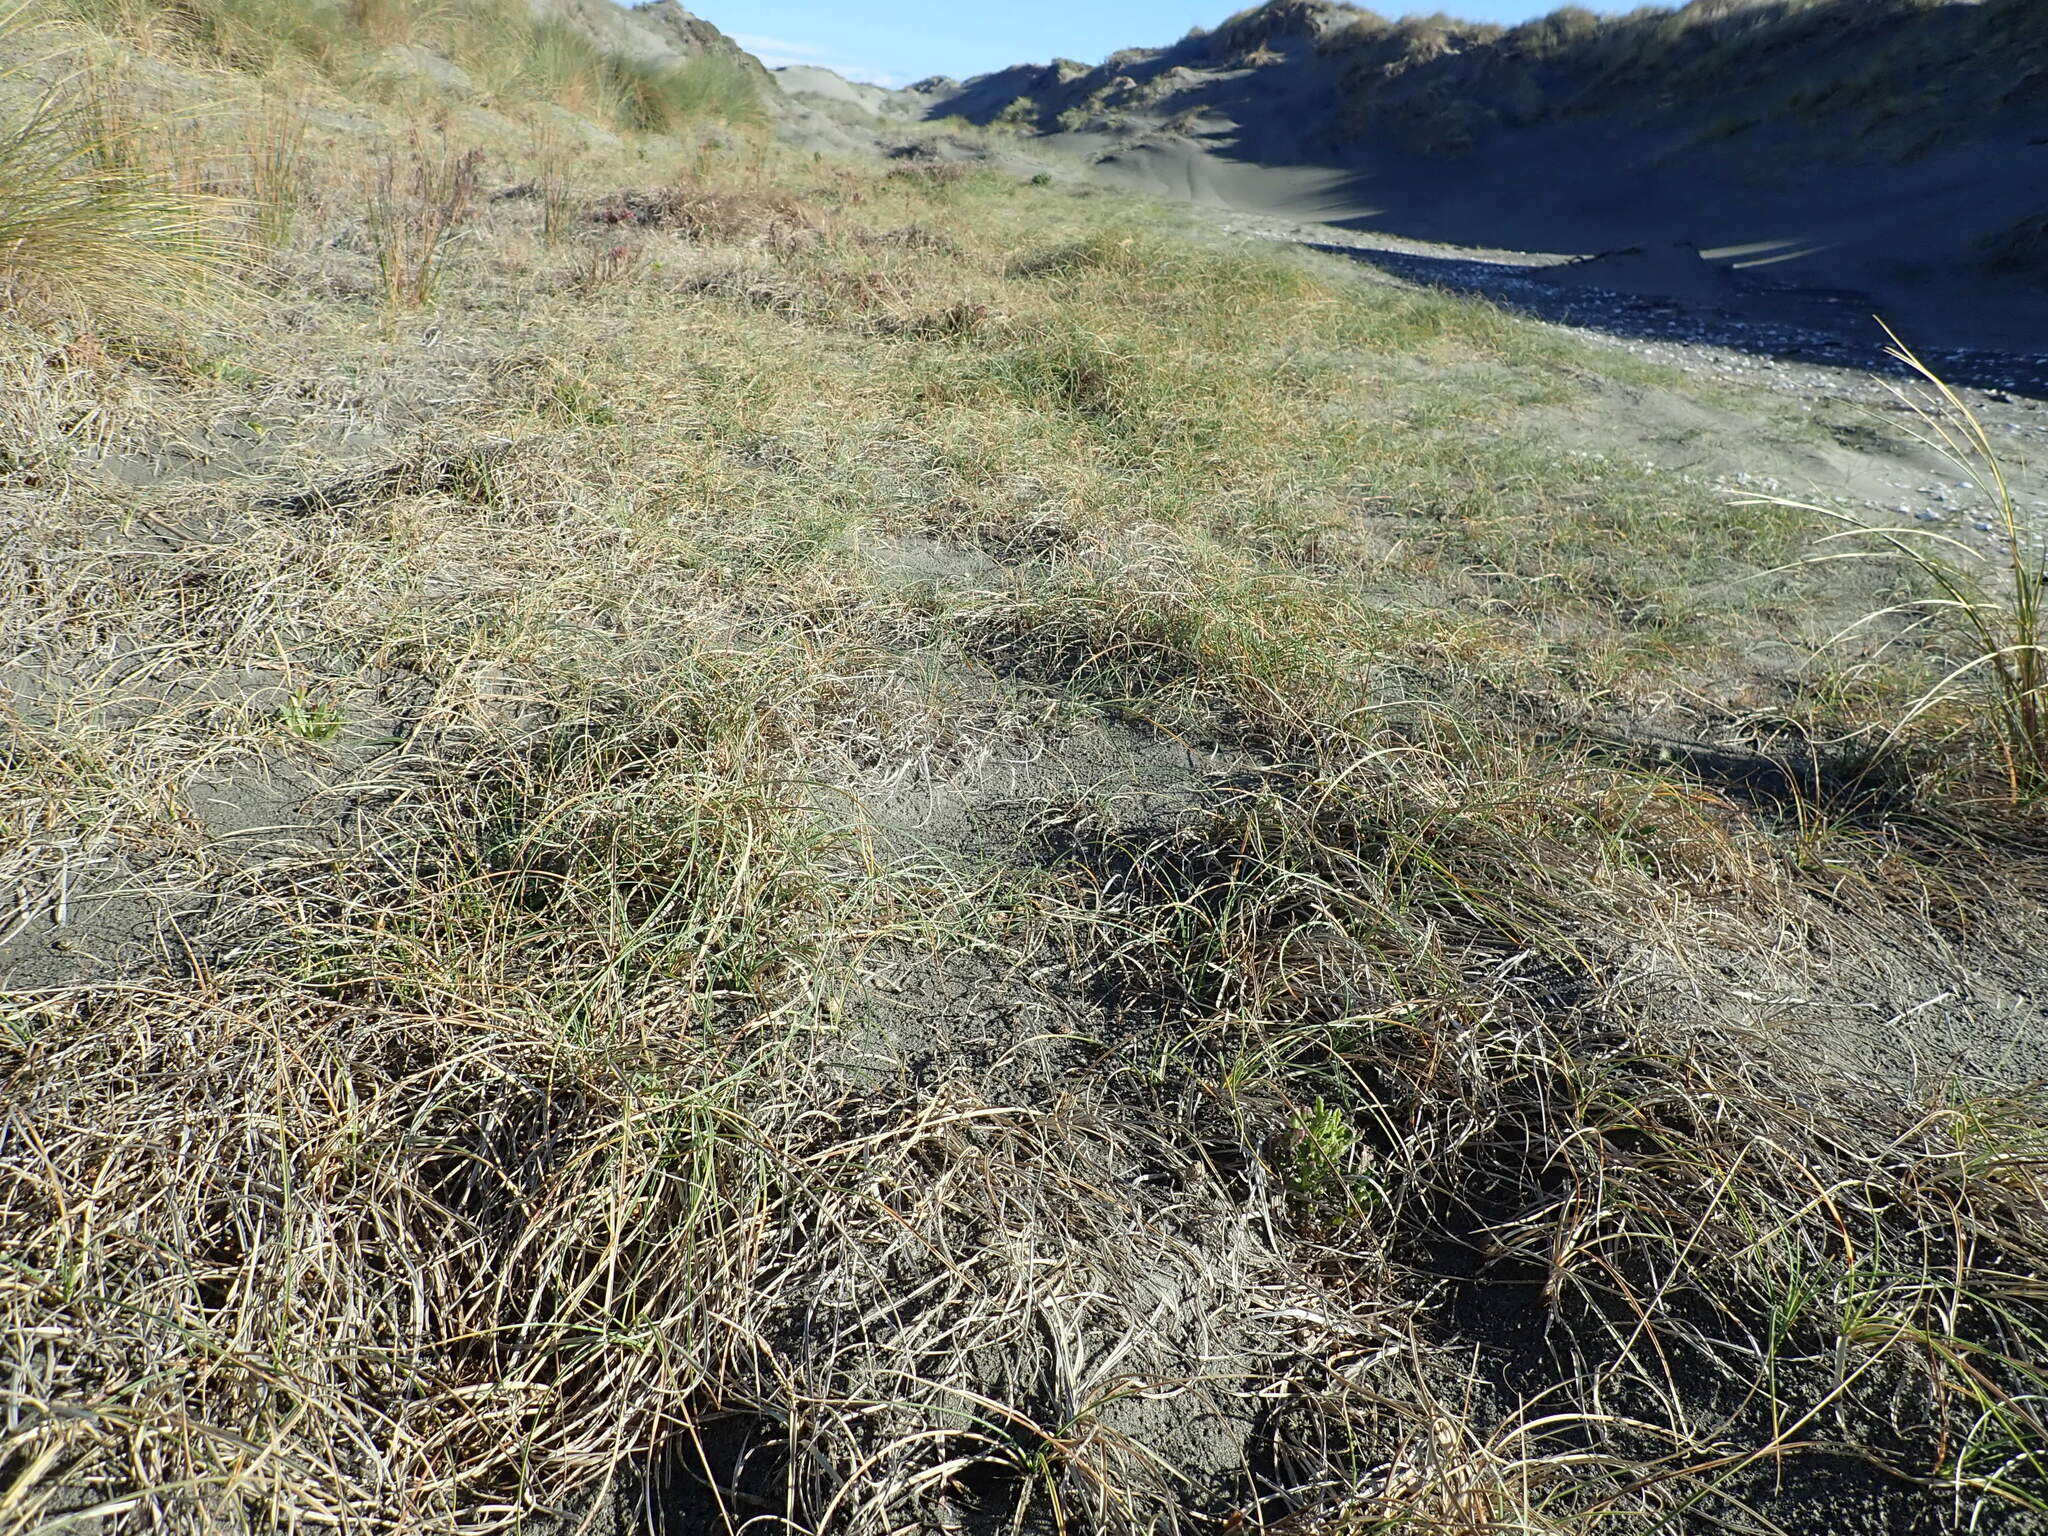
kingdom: Plantae
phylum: Tracheophyta
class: Liliopsida
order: Poales
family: Cyperaceae
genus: Carex
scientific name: Carex pumila
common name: Dwarf sedge
